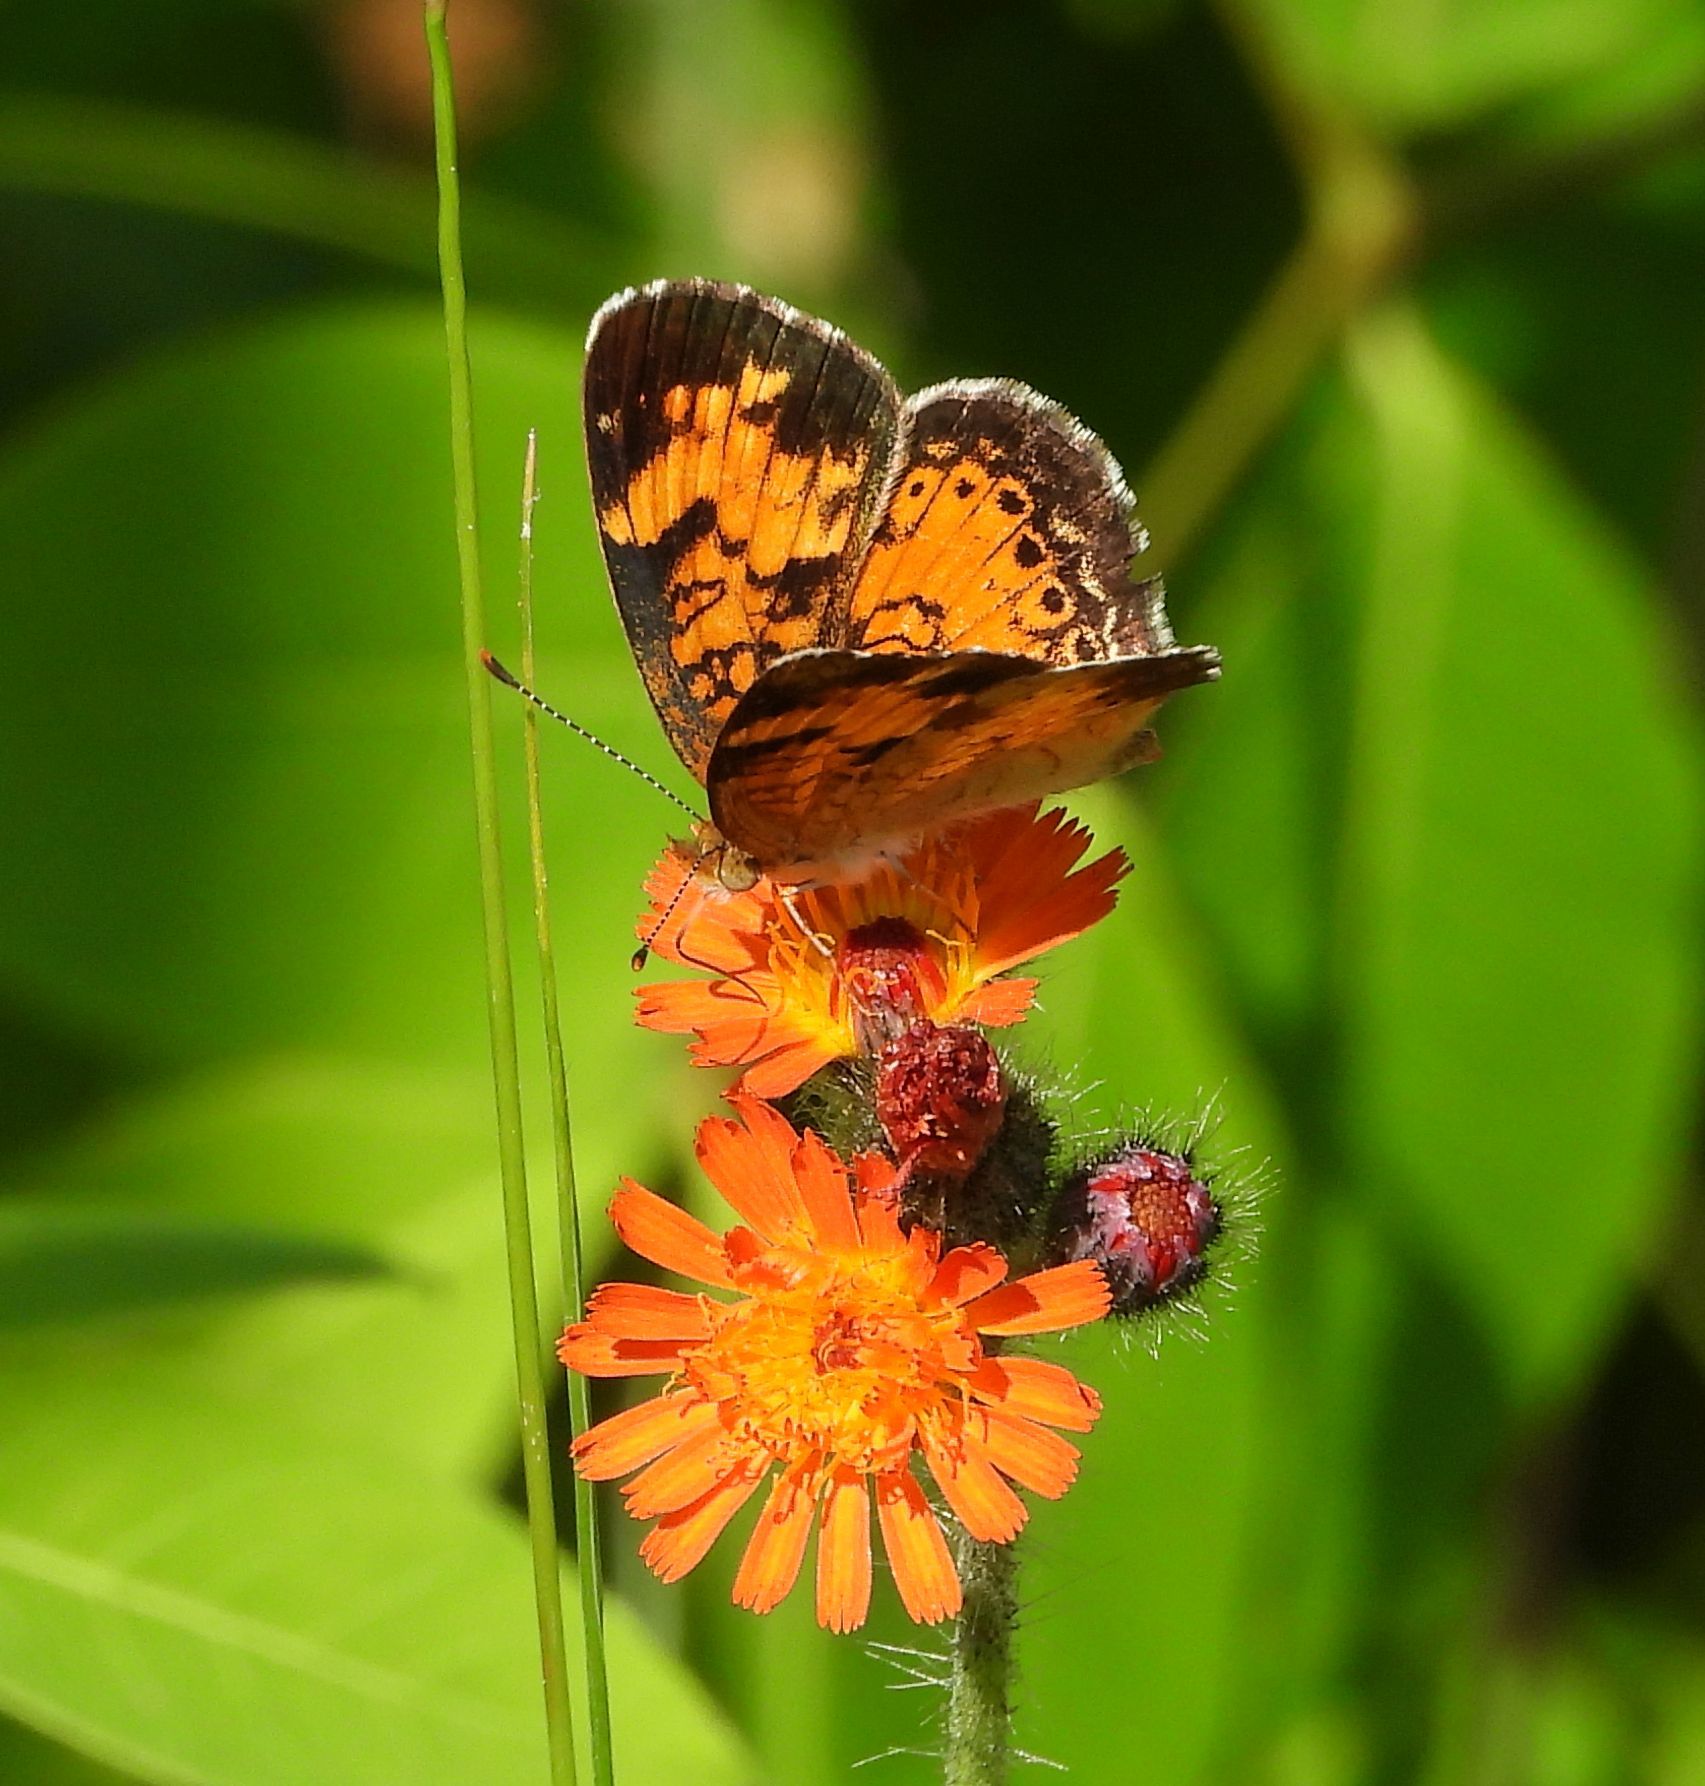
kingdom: Animalia
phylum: Arthropoda
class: Insecta
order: Lepidoptera
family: Nymphalidae
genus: Phyciodes
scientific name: Phyciodes tharos
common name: Pearl crescent
